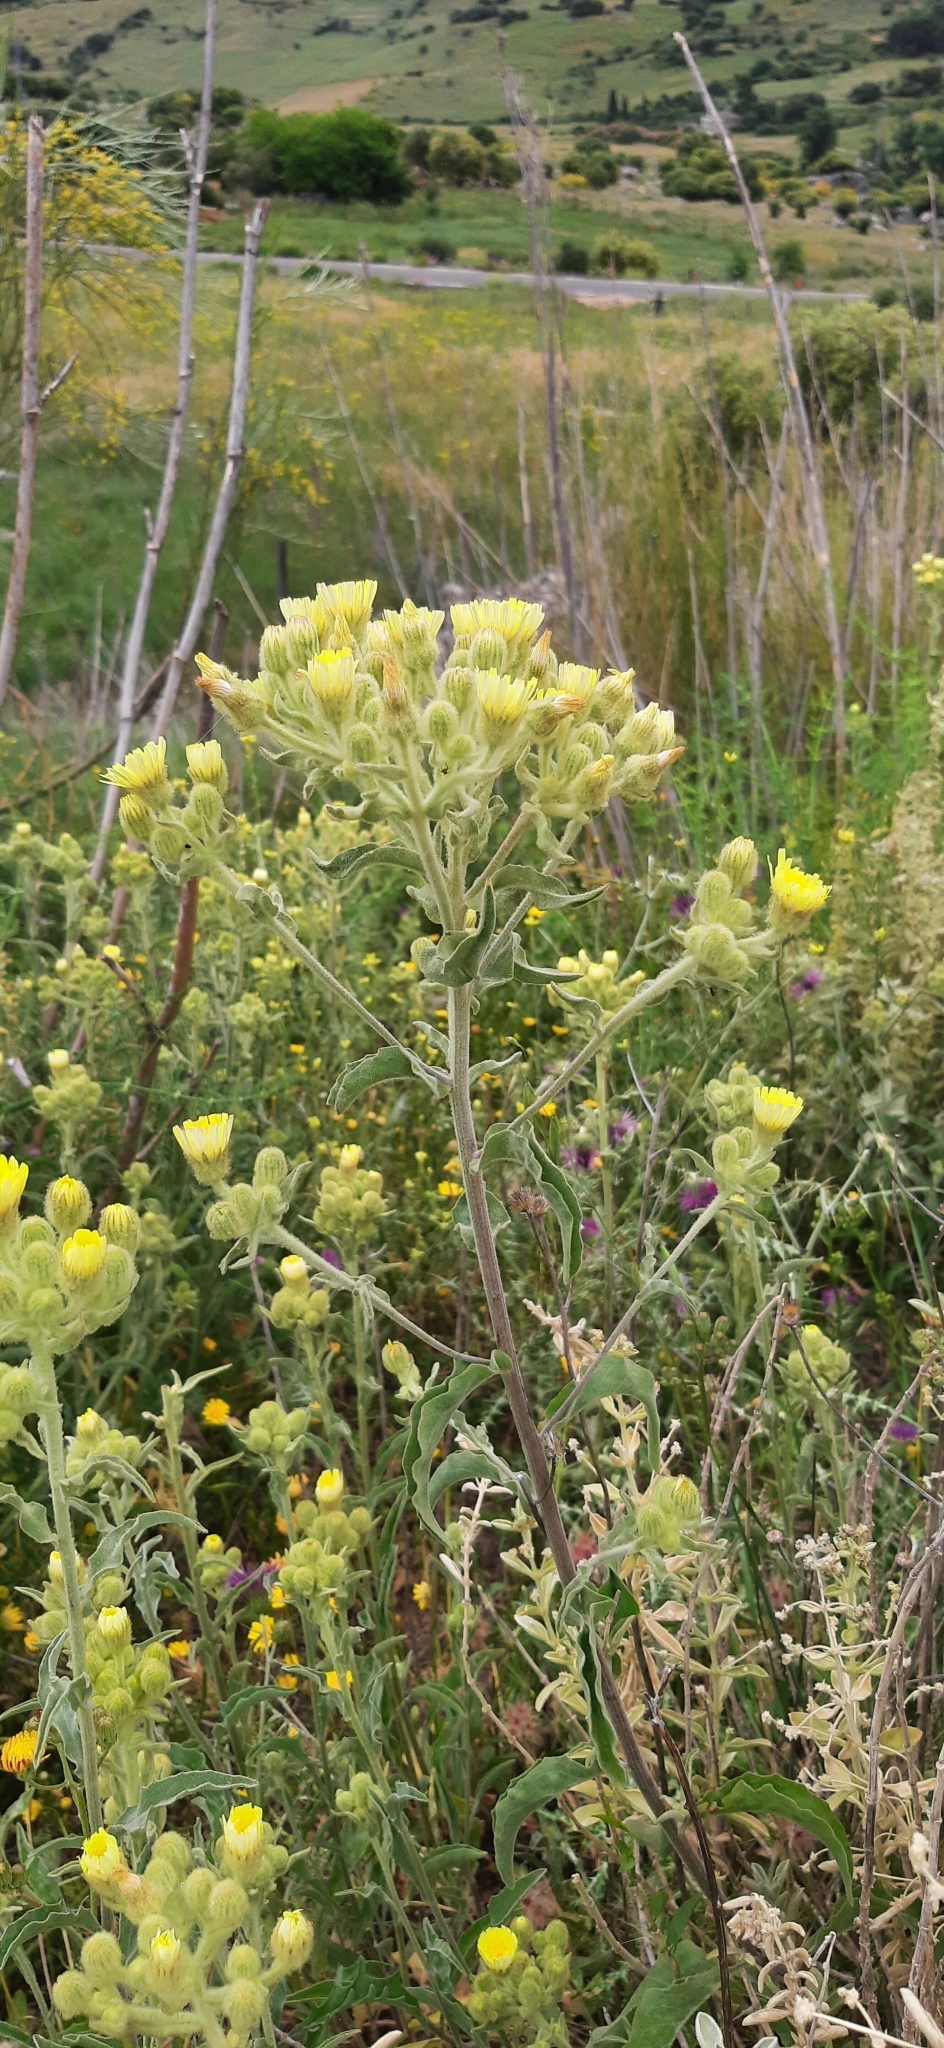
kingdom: Plantae
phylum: Tracheophyta
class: Magnoliopsida
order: Asterales
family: Asteraceae
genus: Andryala
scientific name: Andryala integrifolia
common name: Common andryala
